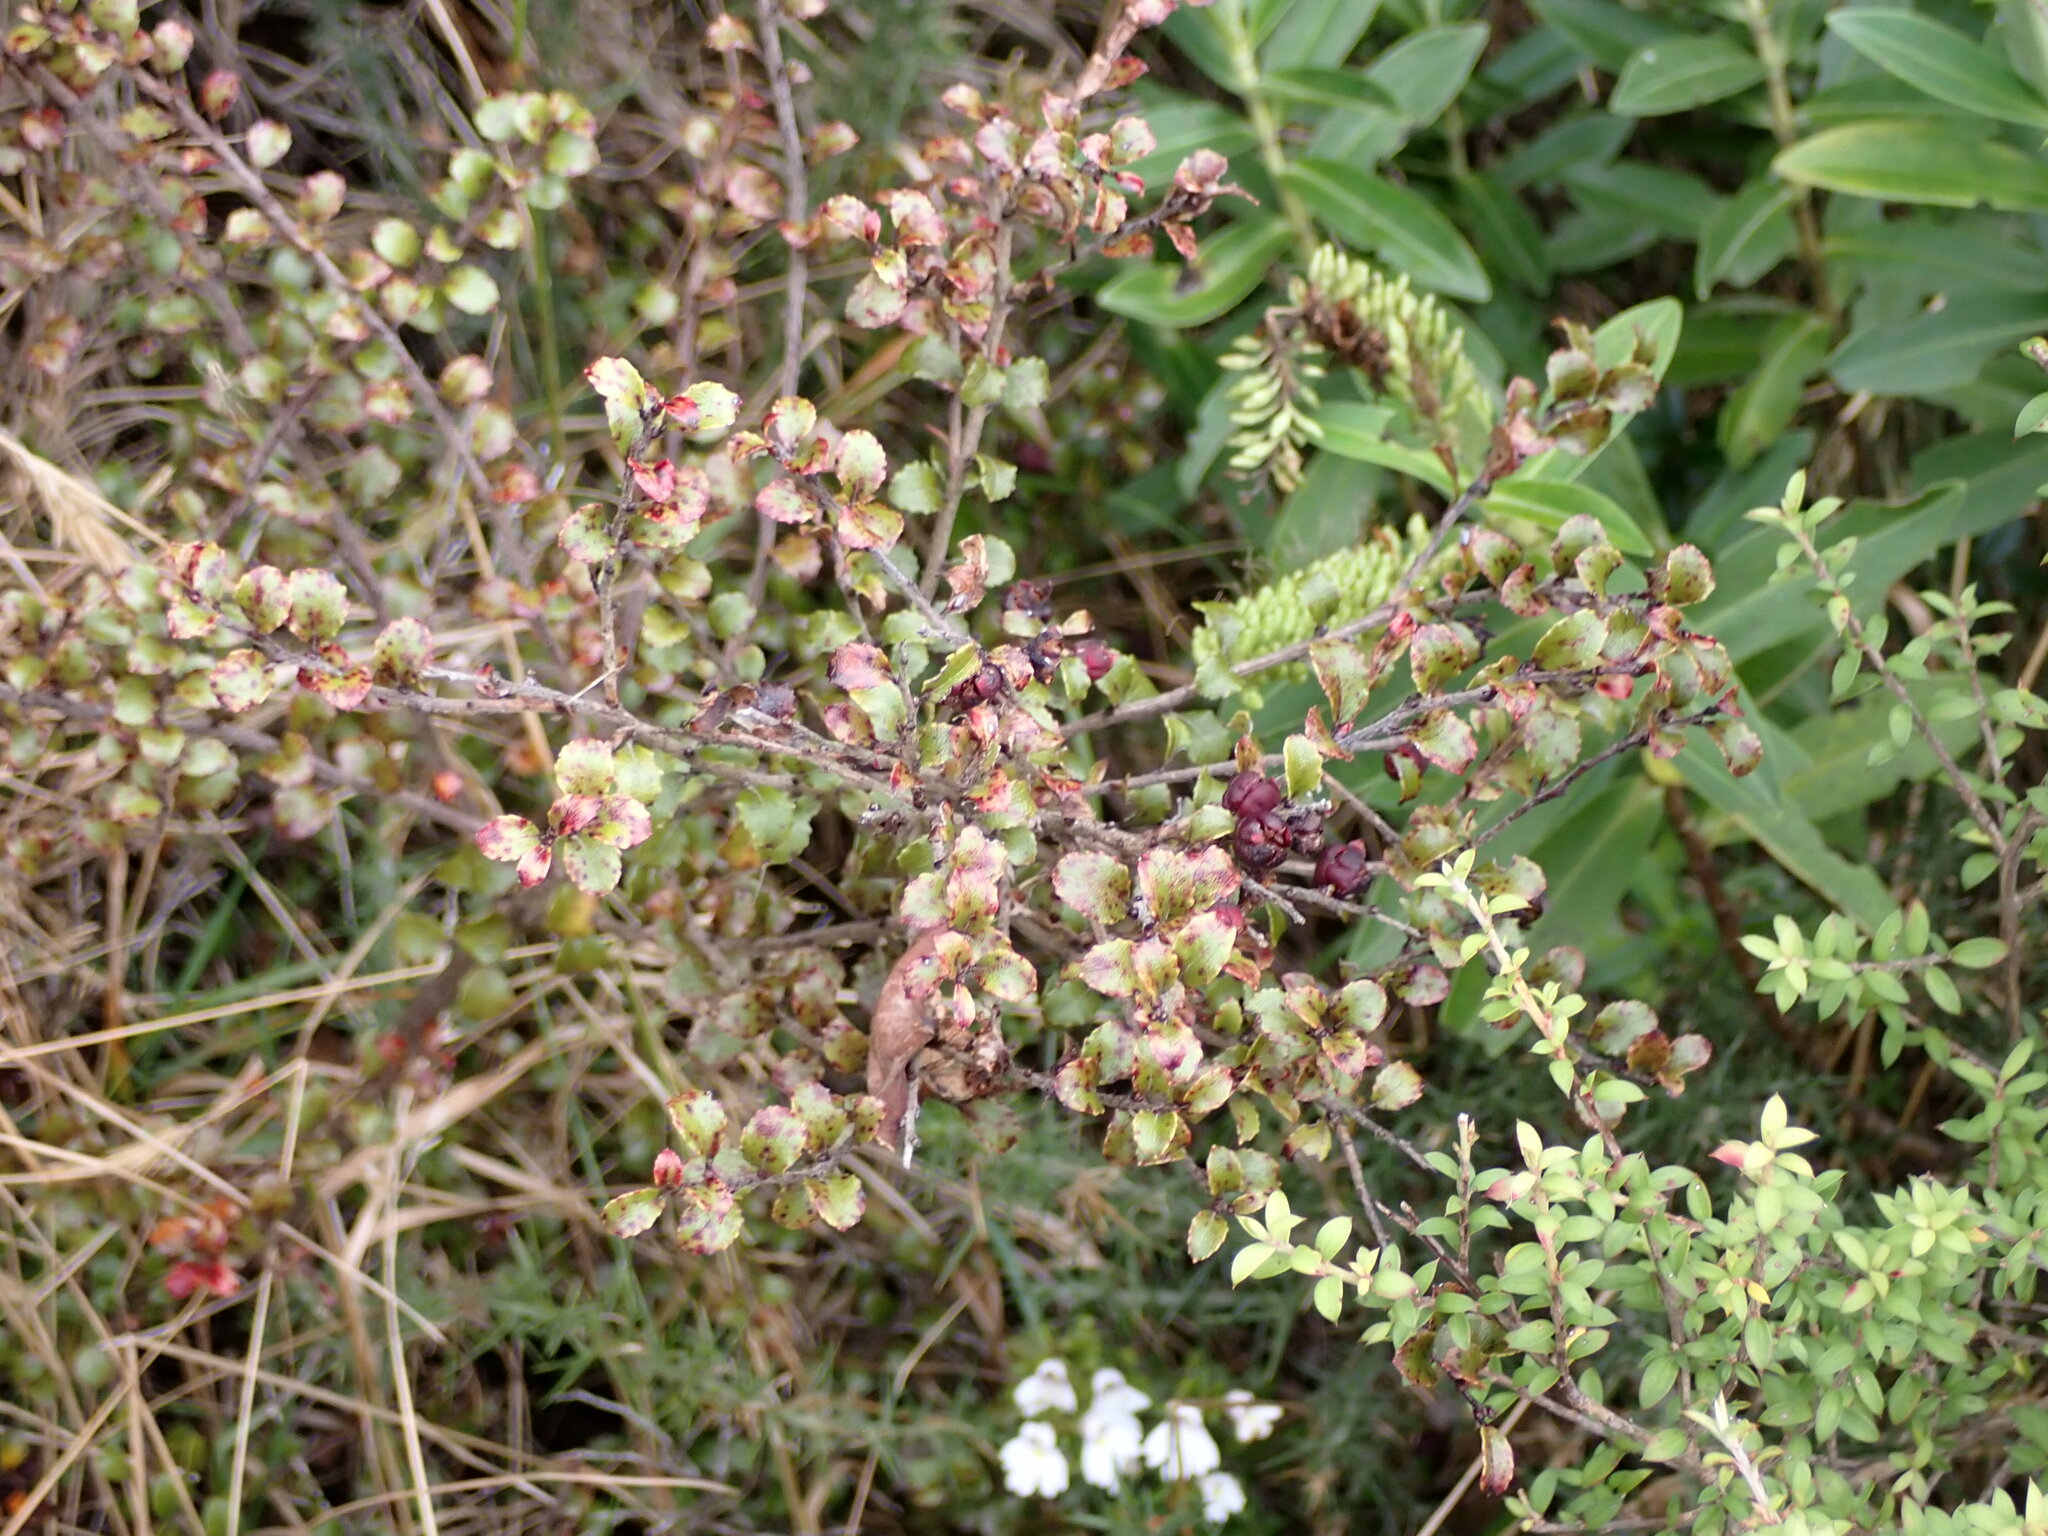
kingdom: Plantae
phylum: Tracheophyta
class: Magnoliopsida
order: Ericales
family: Ericaceae
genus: Gaultheria
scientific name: Gaultheria antipoda
